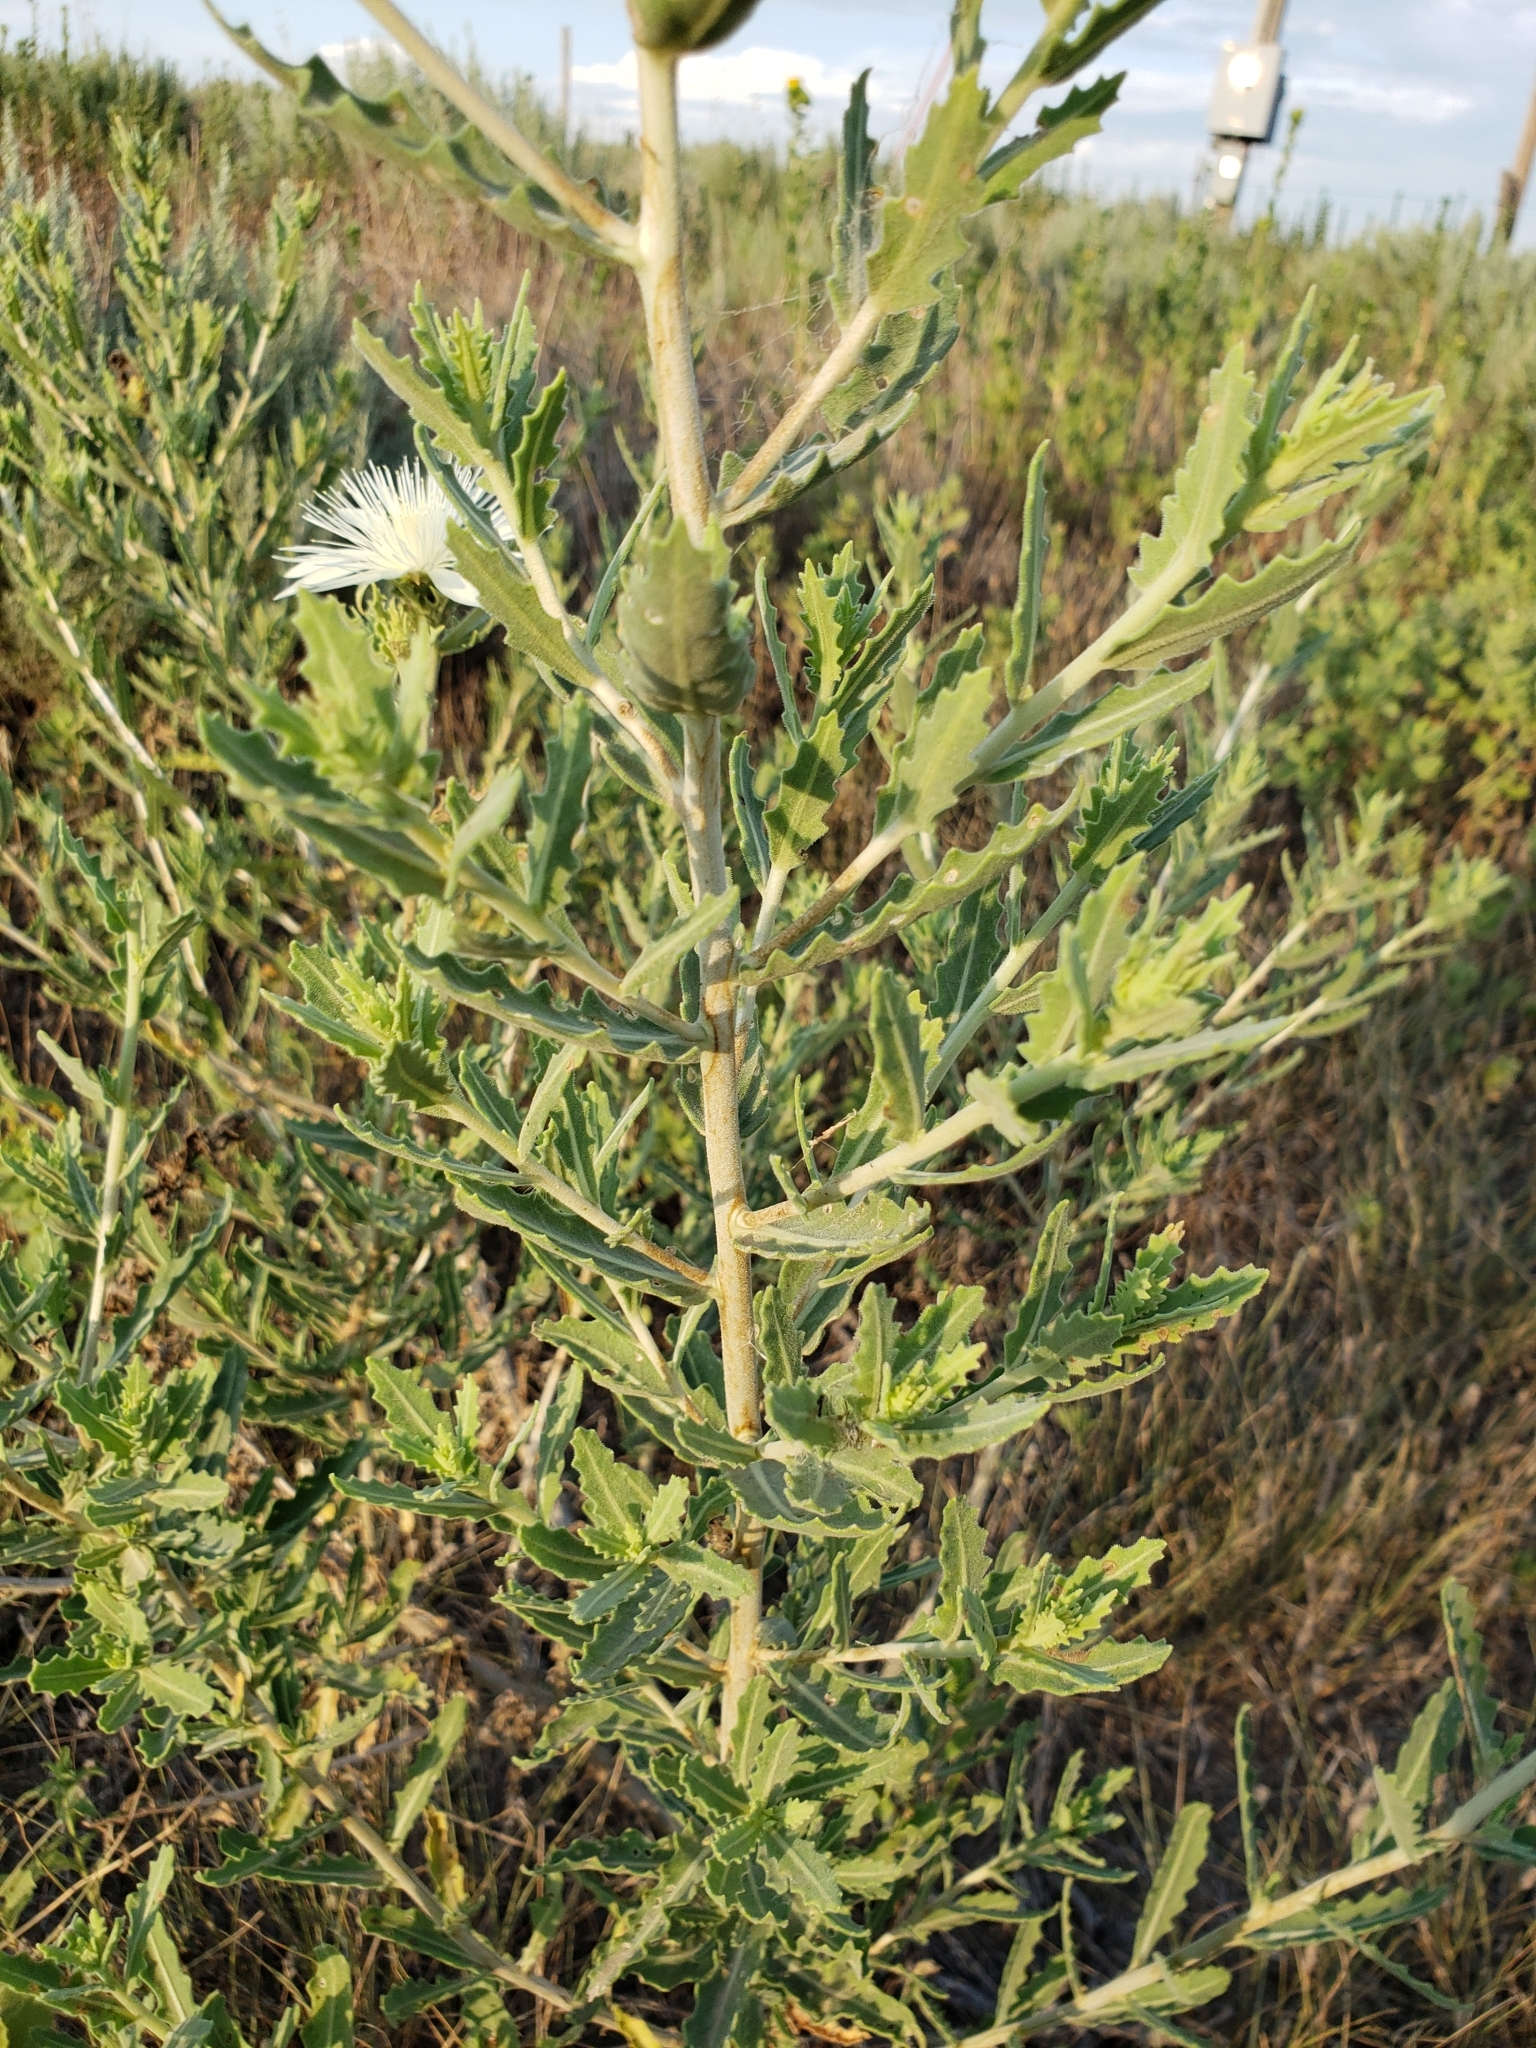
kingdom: Plantae
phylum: Tracheophyta
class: Magnoliopsida
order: Cornales
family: Loasaceae
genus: Mentzelia
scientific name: Mentzelia nuda
